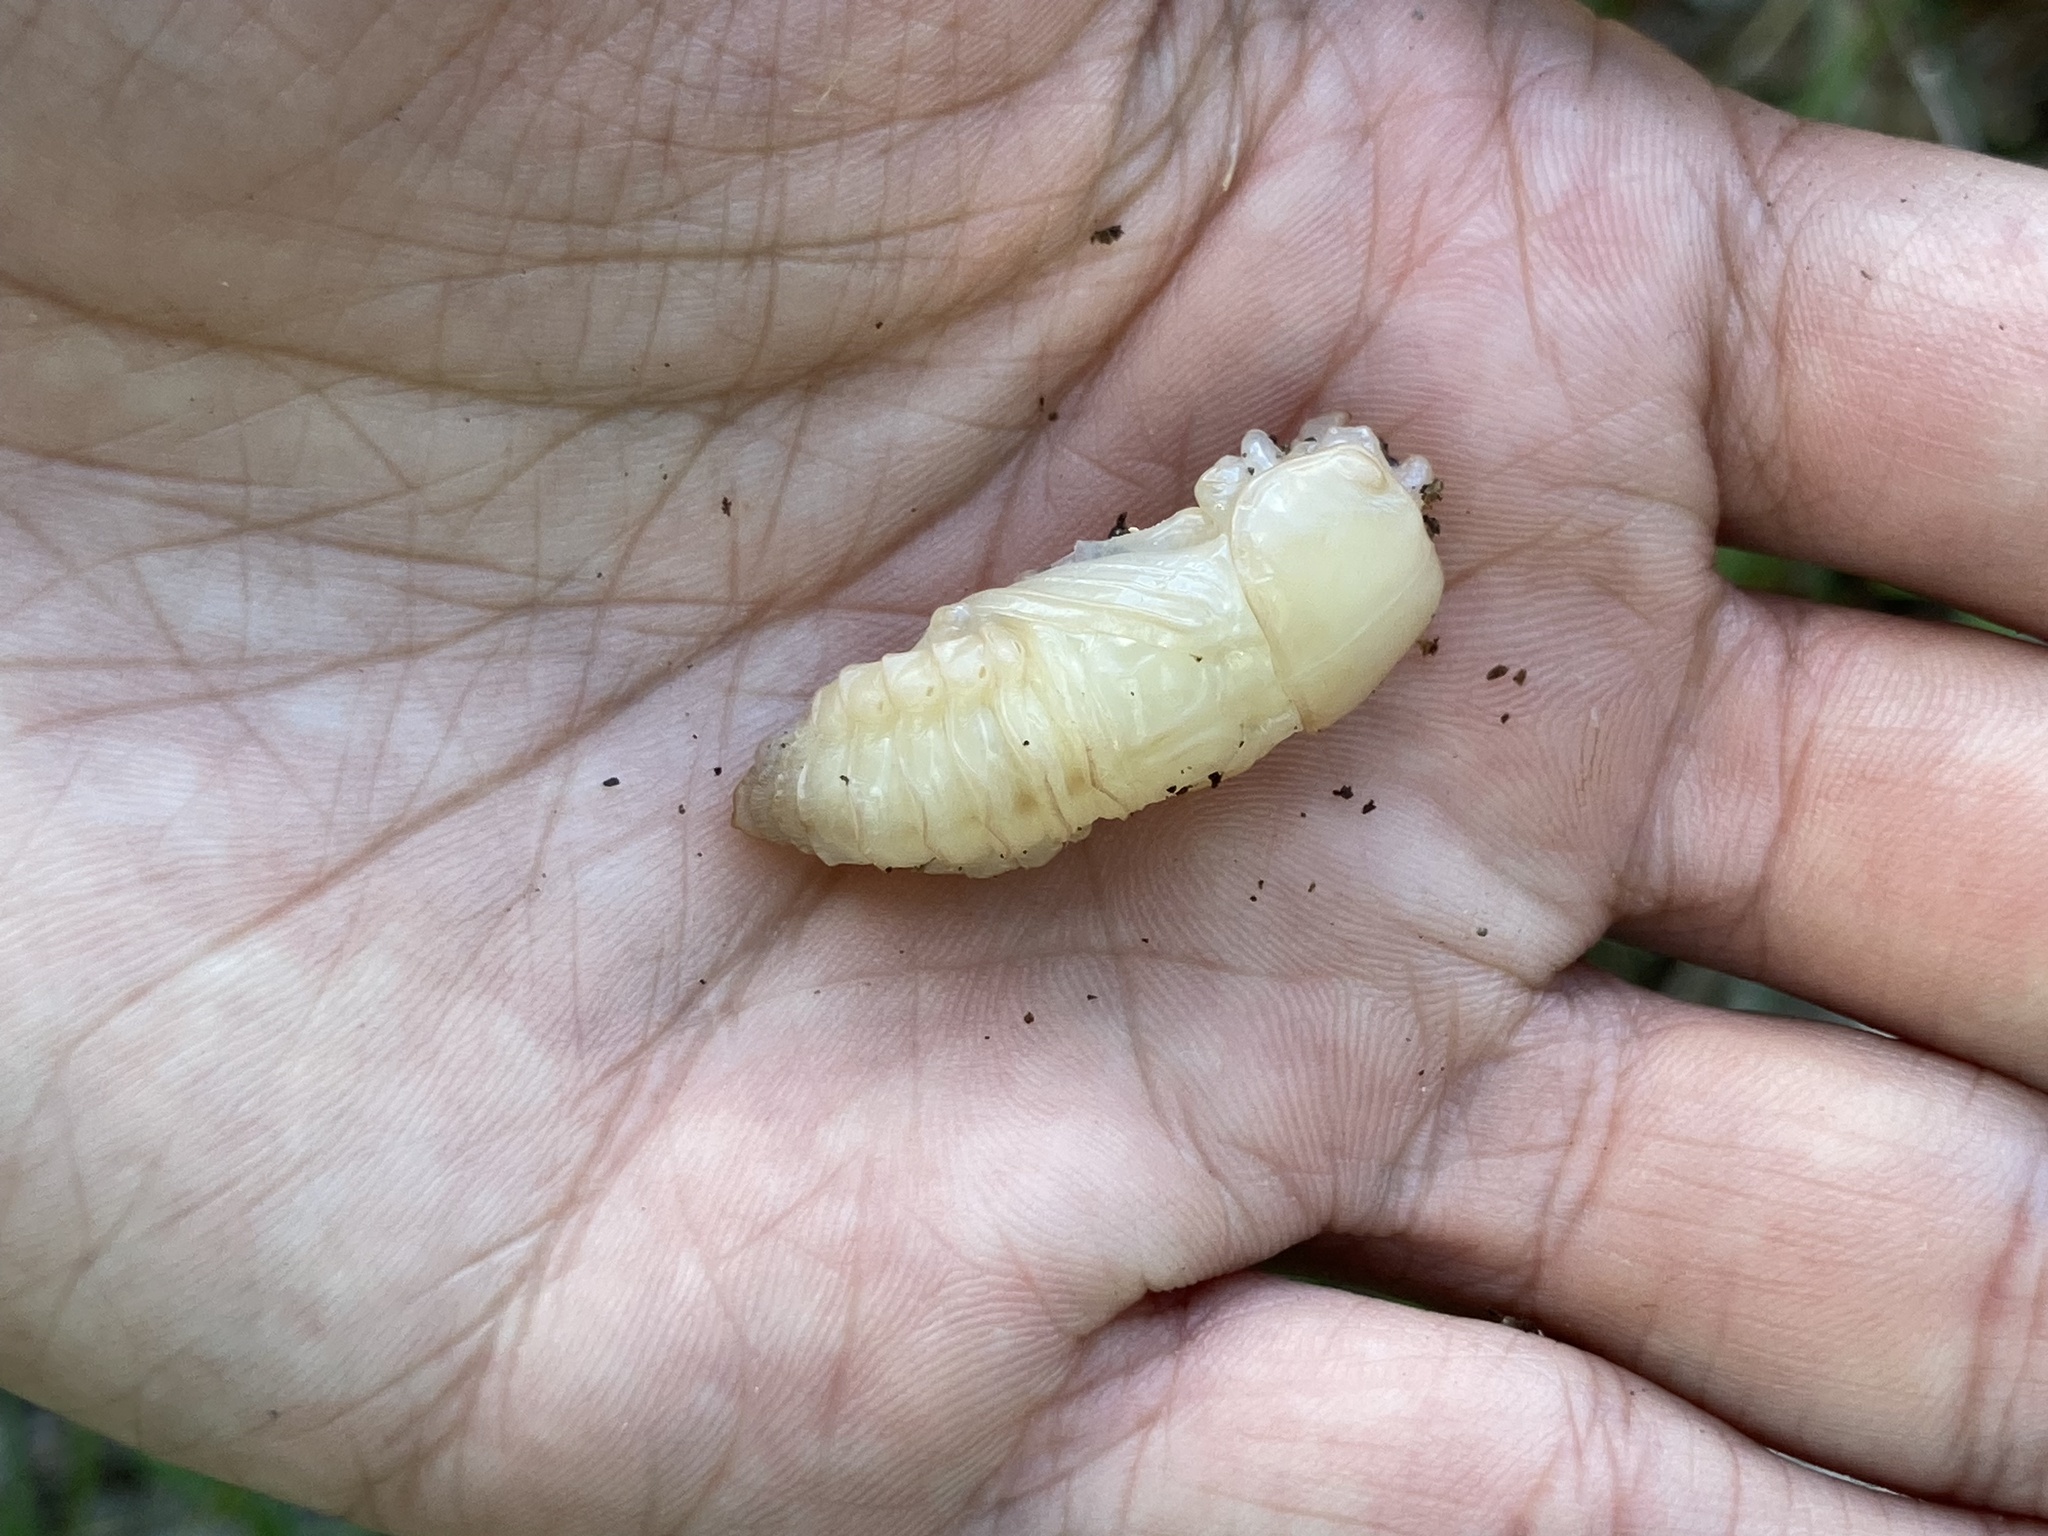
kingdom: Animalia
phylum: Arthropoda
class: Insecta
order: Coleoptera
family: Passalidae
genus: Odontotaenius
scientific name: Odontotaenius disjunctus
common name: Patent leather beetle
